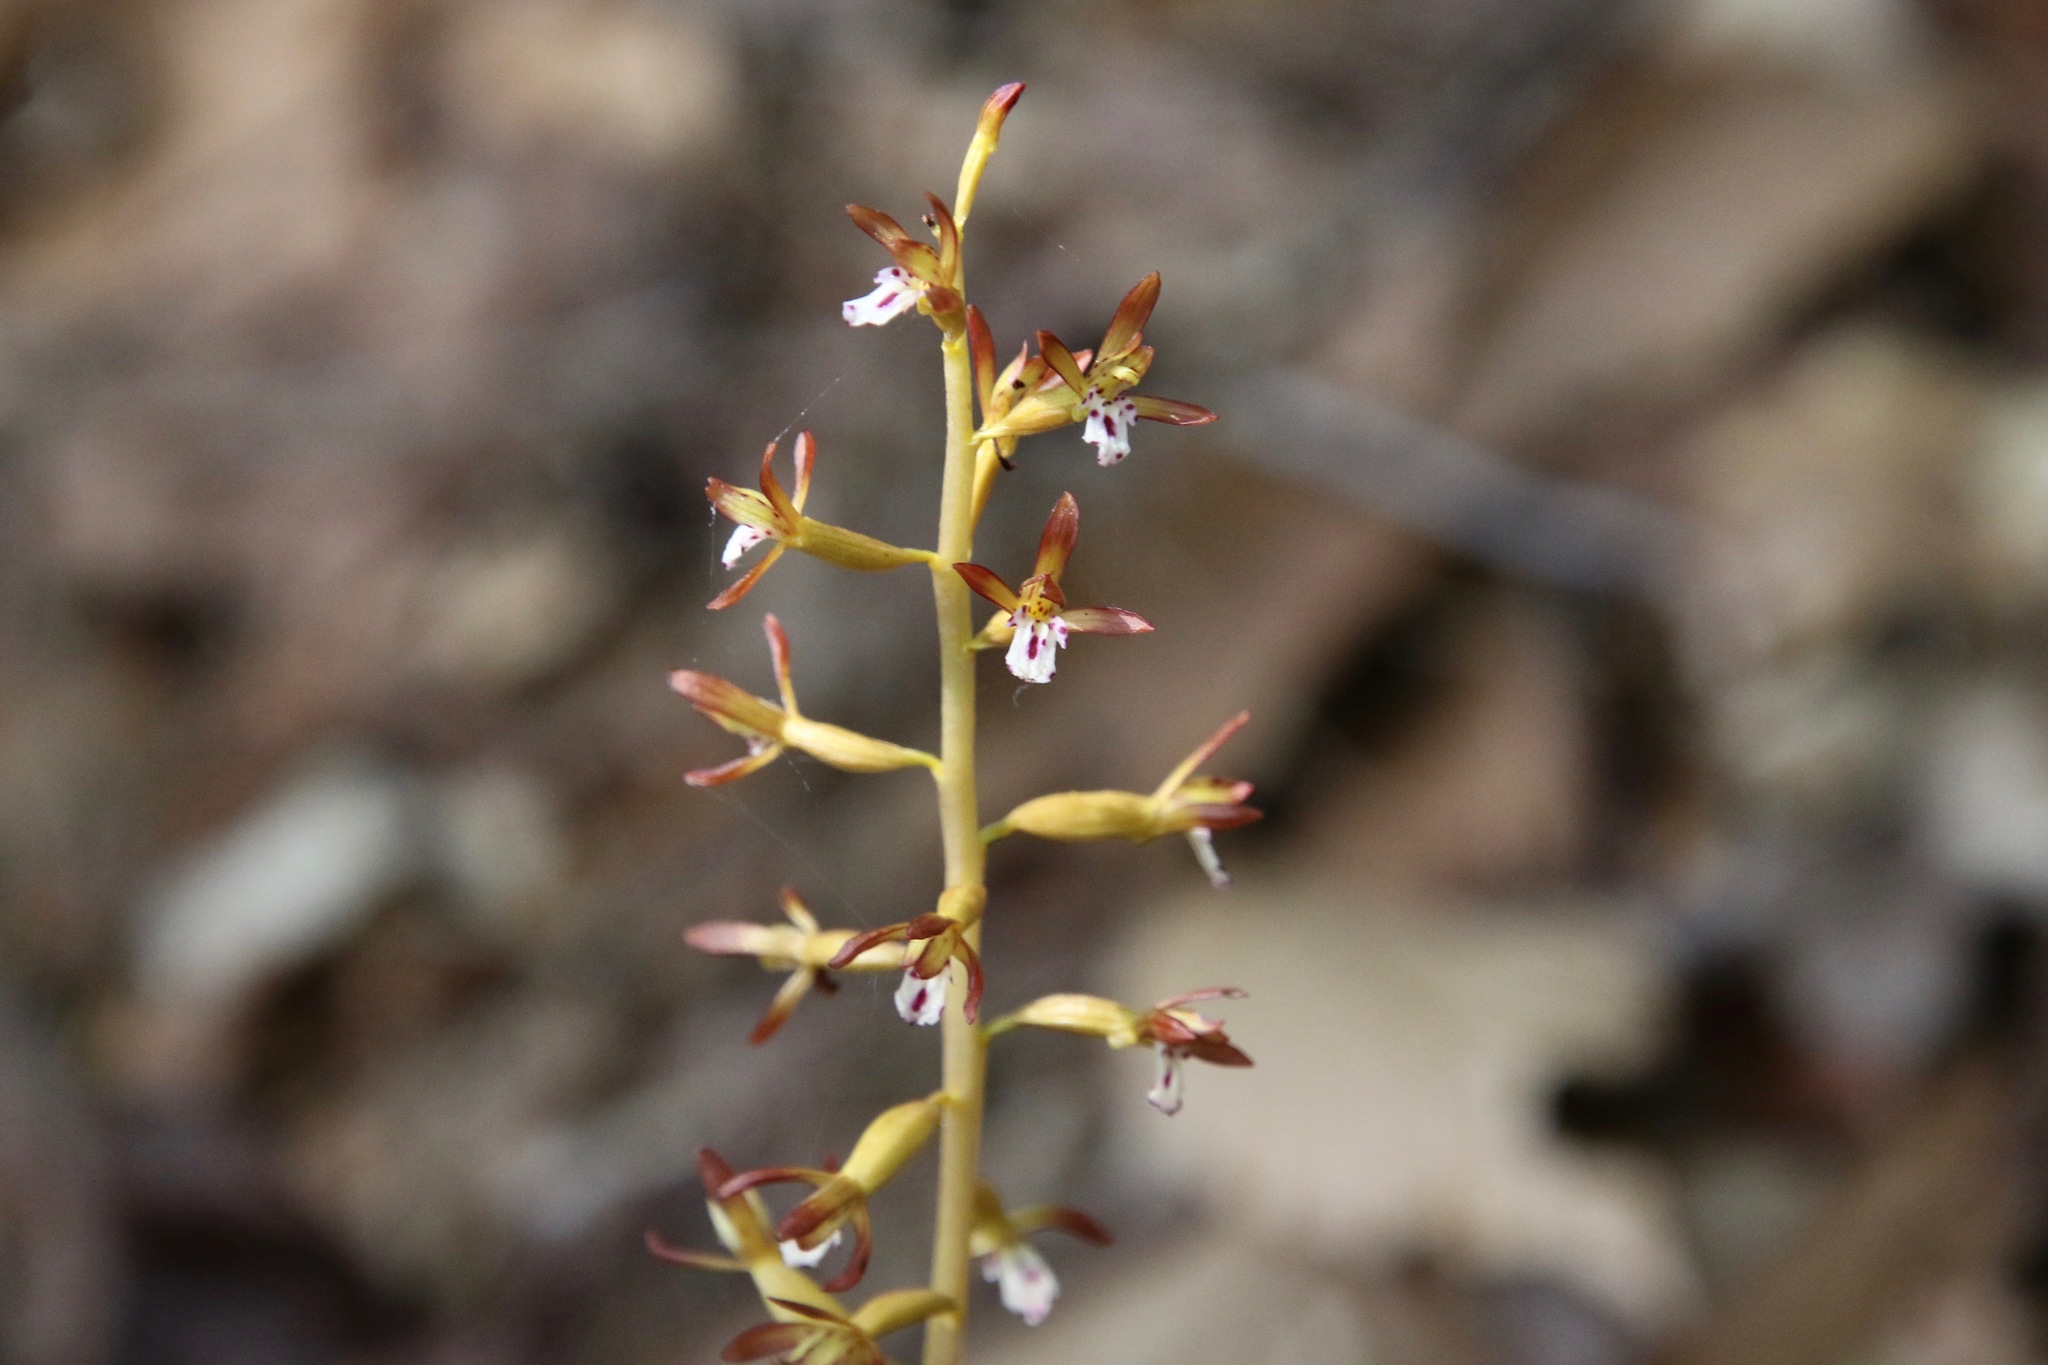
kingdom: Plantae
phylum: Tracheophyta
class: Liliopsida
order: Asparagales
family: Orchidaceae
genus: Corallorhiza
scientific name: Corallorhiza maculata
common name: Spotted coralroot
